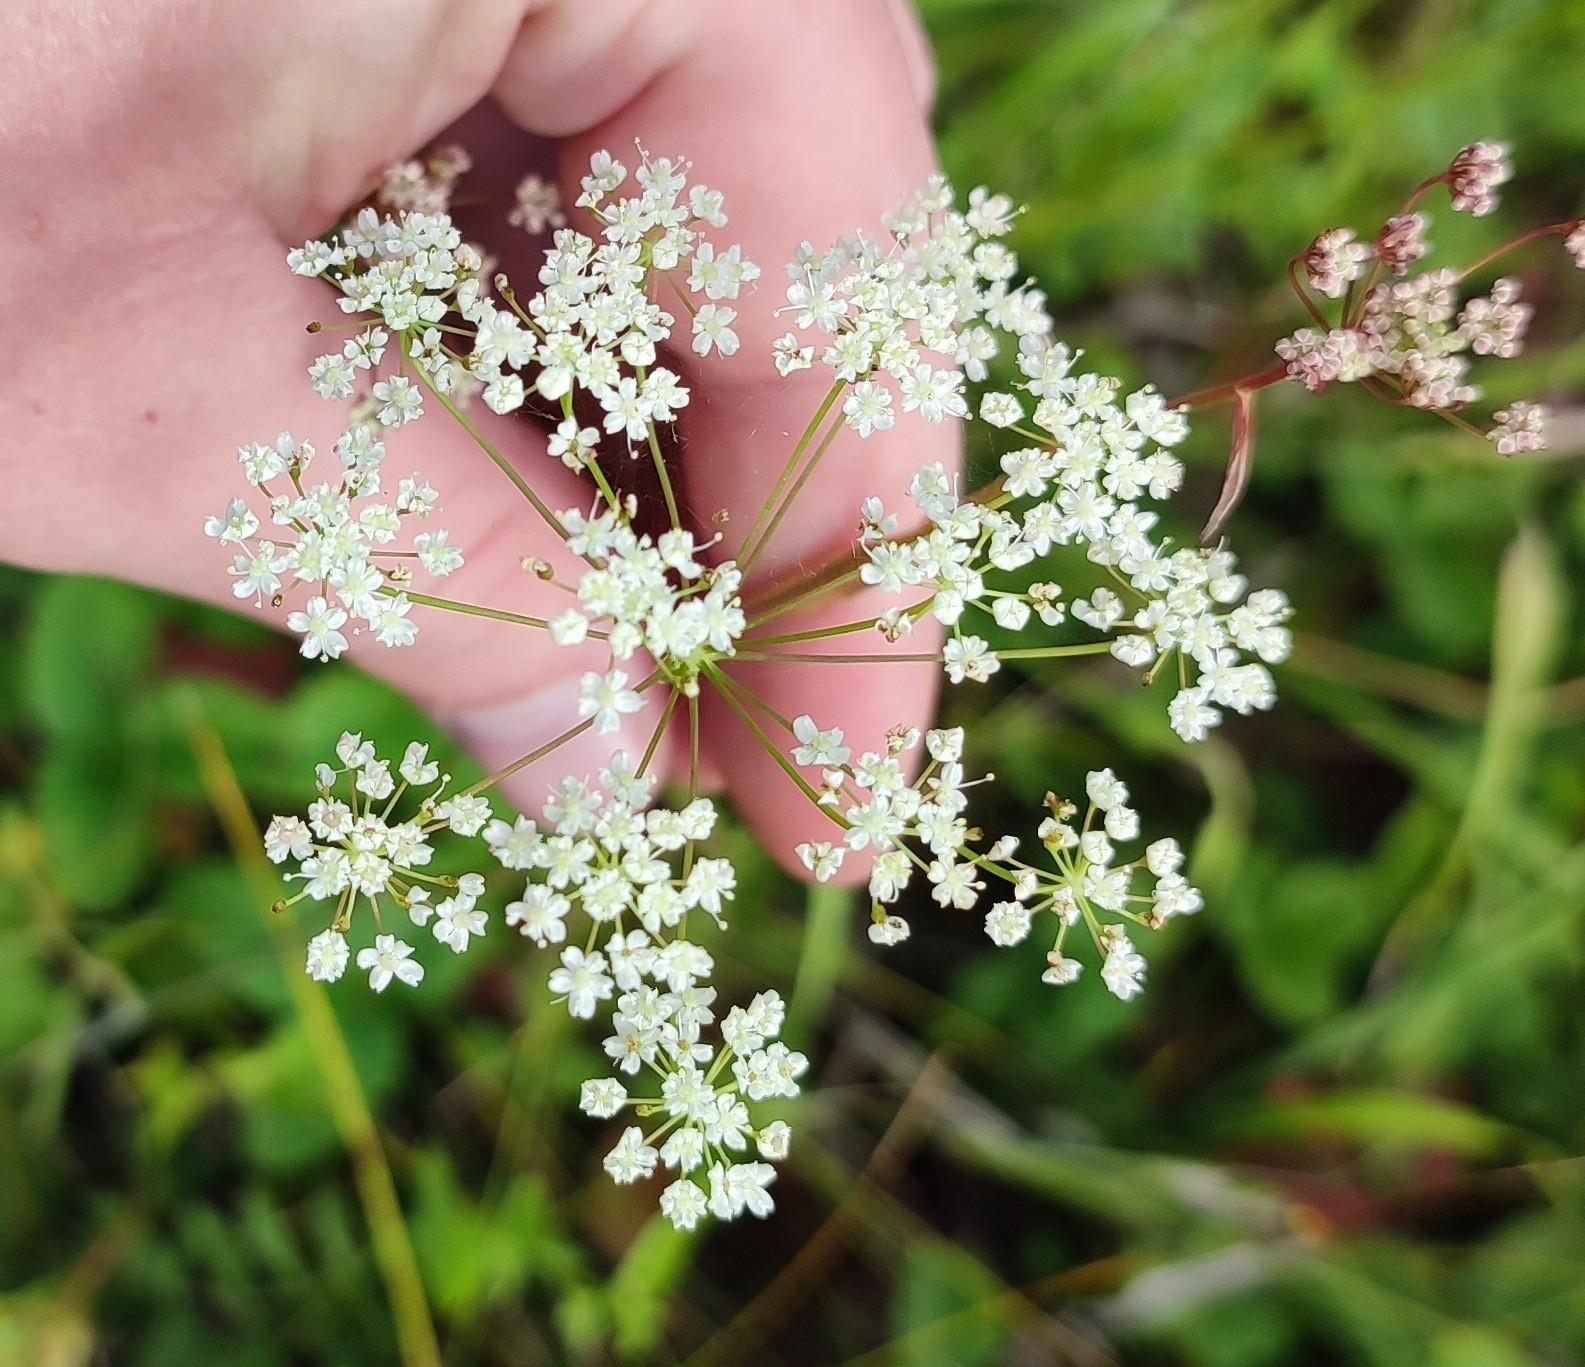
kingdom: Plantae
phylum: Tracheophyta
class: Magnoliopsida
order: Apiales
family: Apiaceae
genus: Pimpinella
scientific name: Pimpinella saxifraga
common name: Burnet-saxifrage
